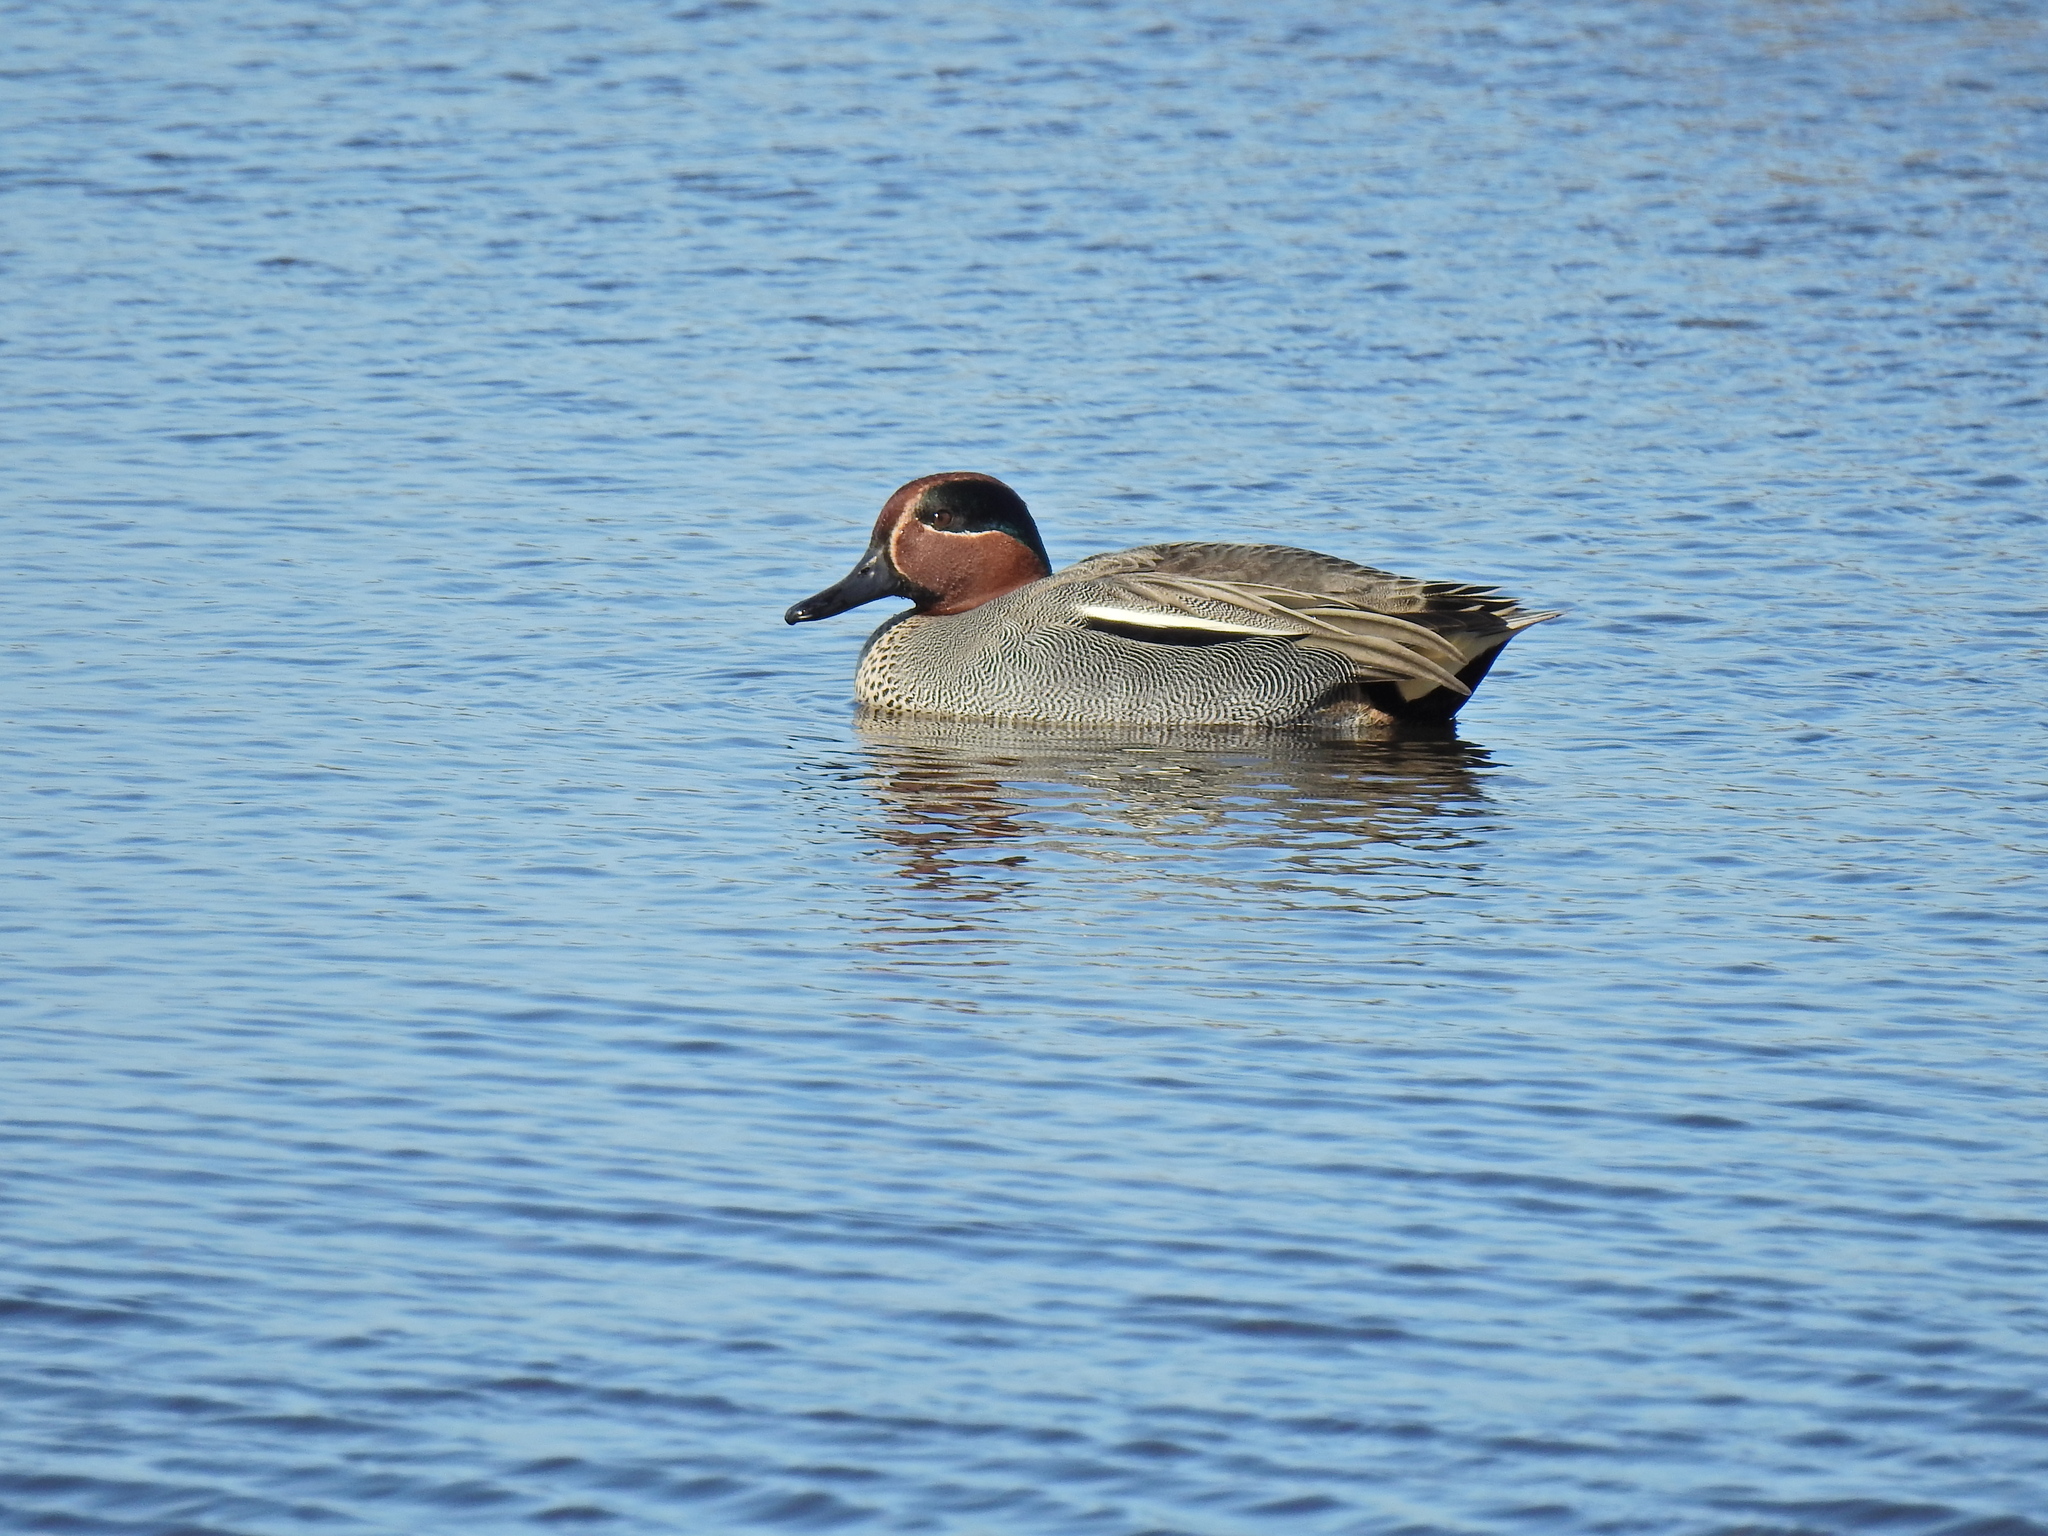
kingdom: Animalia
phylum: Chordata
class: Aves
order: Anseriformes
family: Anatidae
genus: Anas
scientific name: Anas crecca
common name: Eurasian teal
